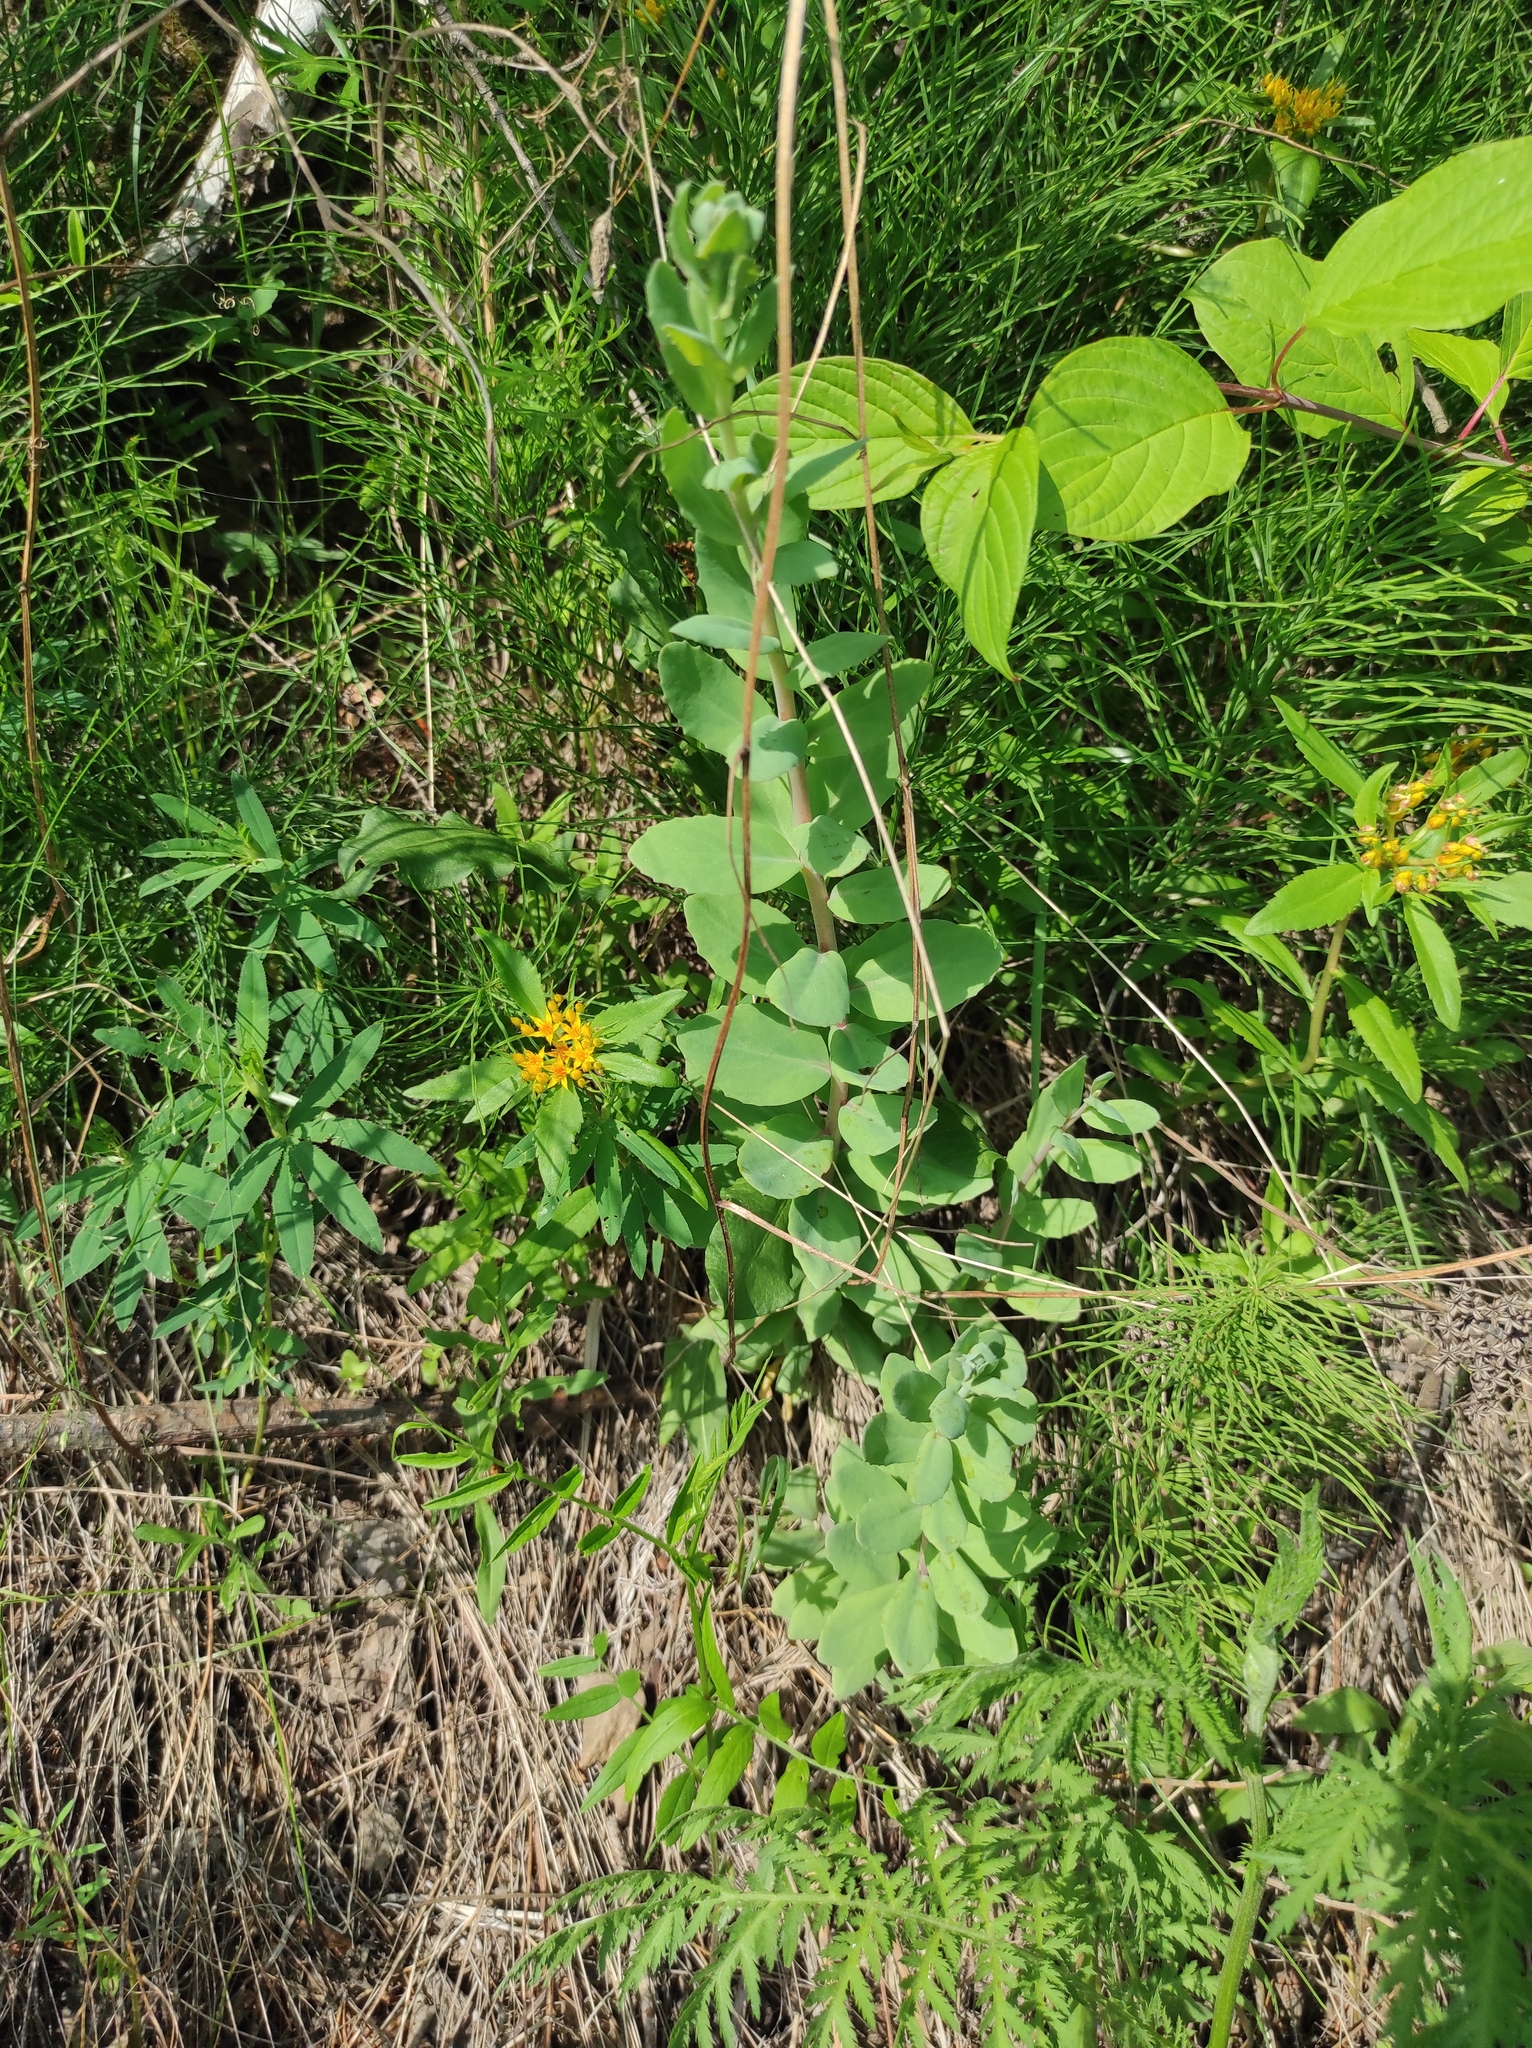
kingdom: Plantae
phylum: Tracheophyta
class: Magnoliopsida
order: Saxifragales
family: Crassulaceae
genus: Hylotelephium
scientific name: Hylotelephium telephium
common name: Live-forever
